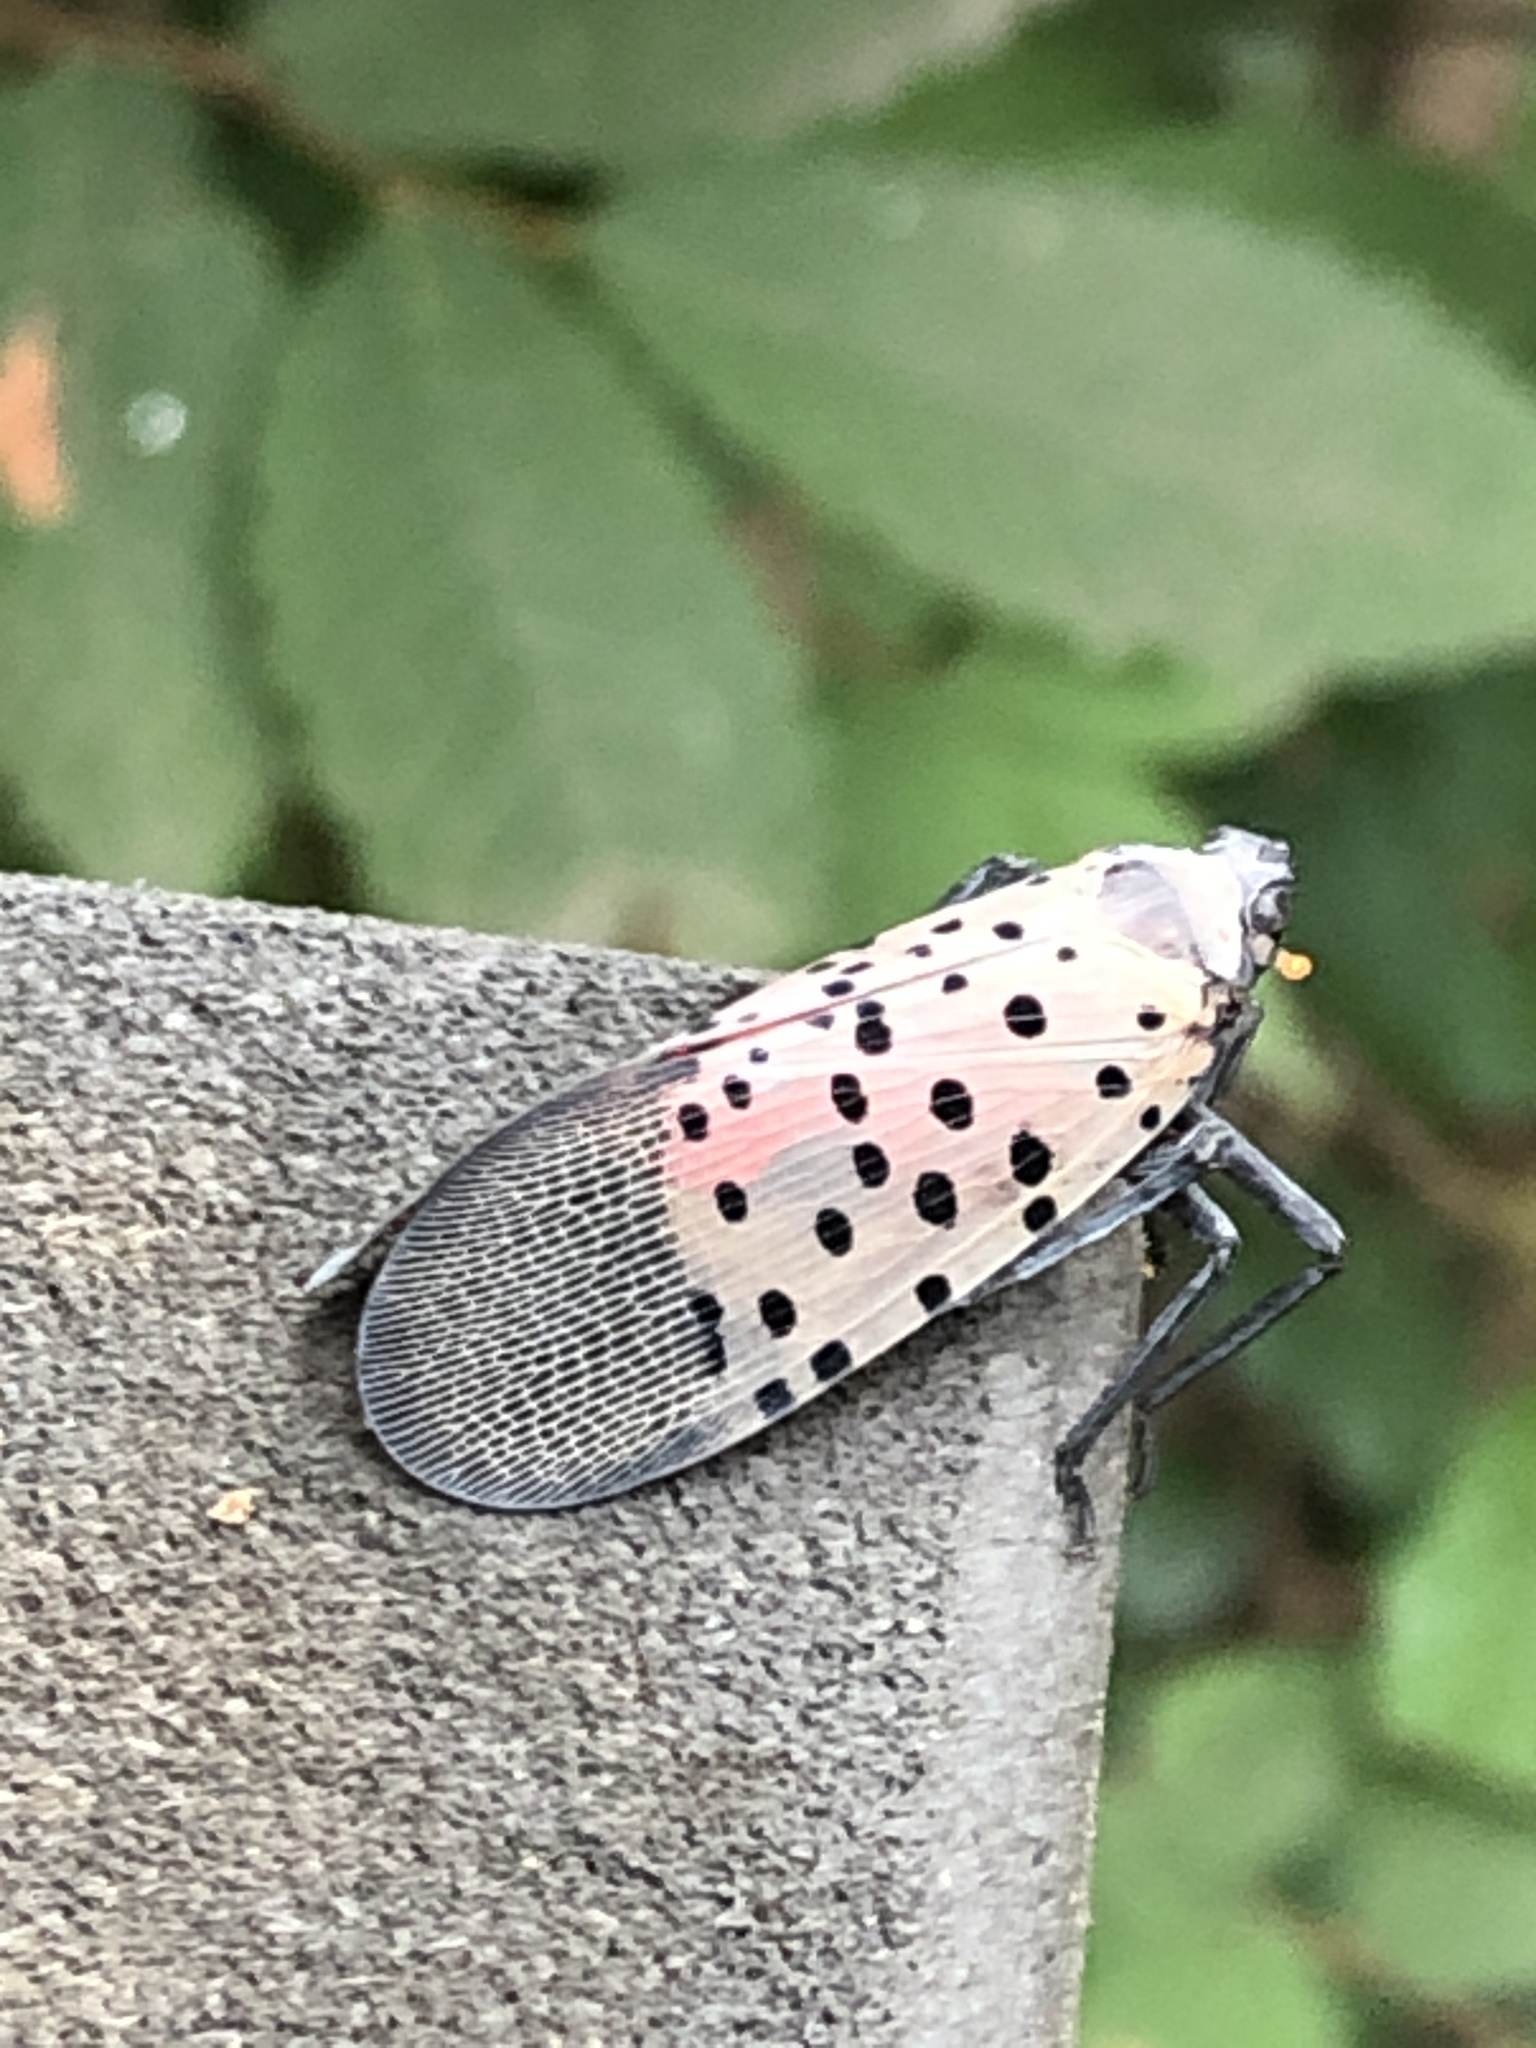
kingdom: Animalia
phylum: Arthropoda
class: Insecta
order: Hemiptera
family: Fulgoridae
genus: Lycorma
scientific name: Lycorma delicatula
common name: Spotted lanternfly
